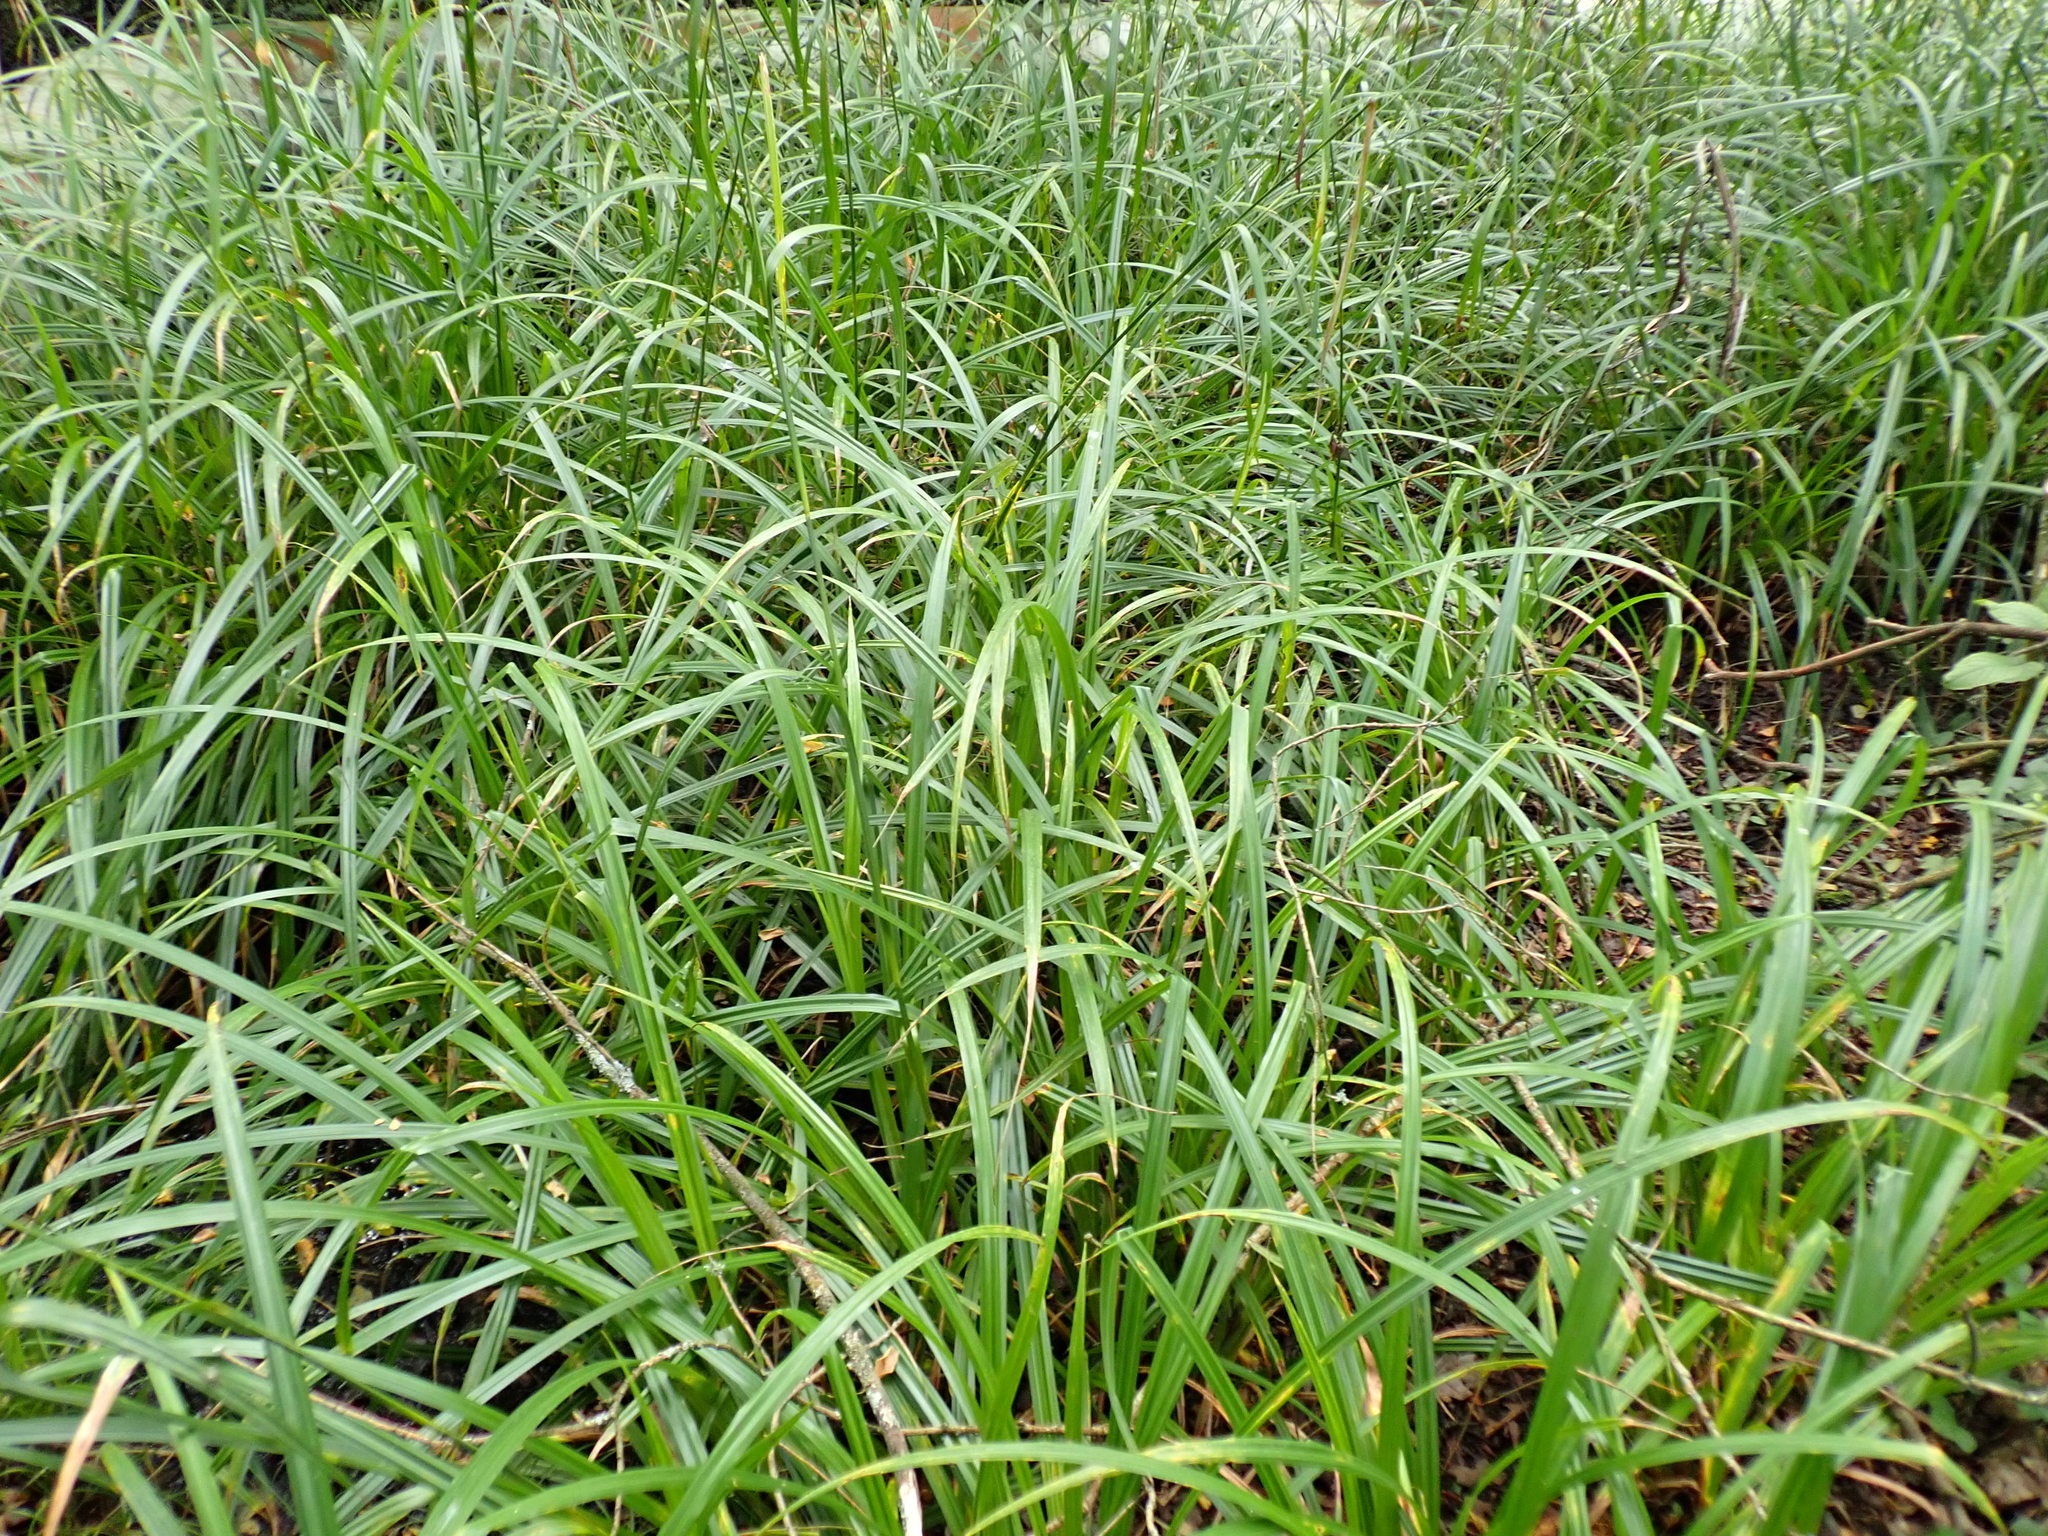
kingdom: Plantae
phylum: Tracheophyta
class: Liliopsida
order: Poales
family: Cyperaceae
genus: Carex
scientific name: Carex pendula
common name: Pendulous sedge
